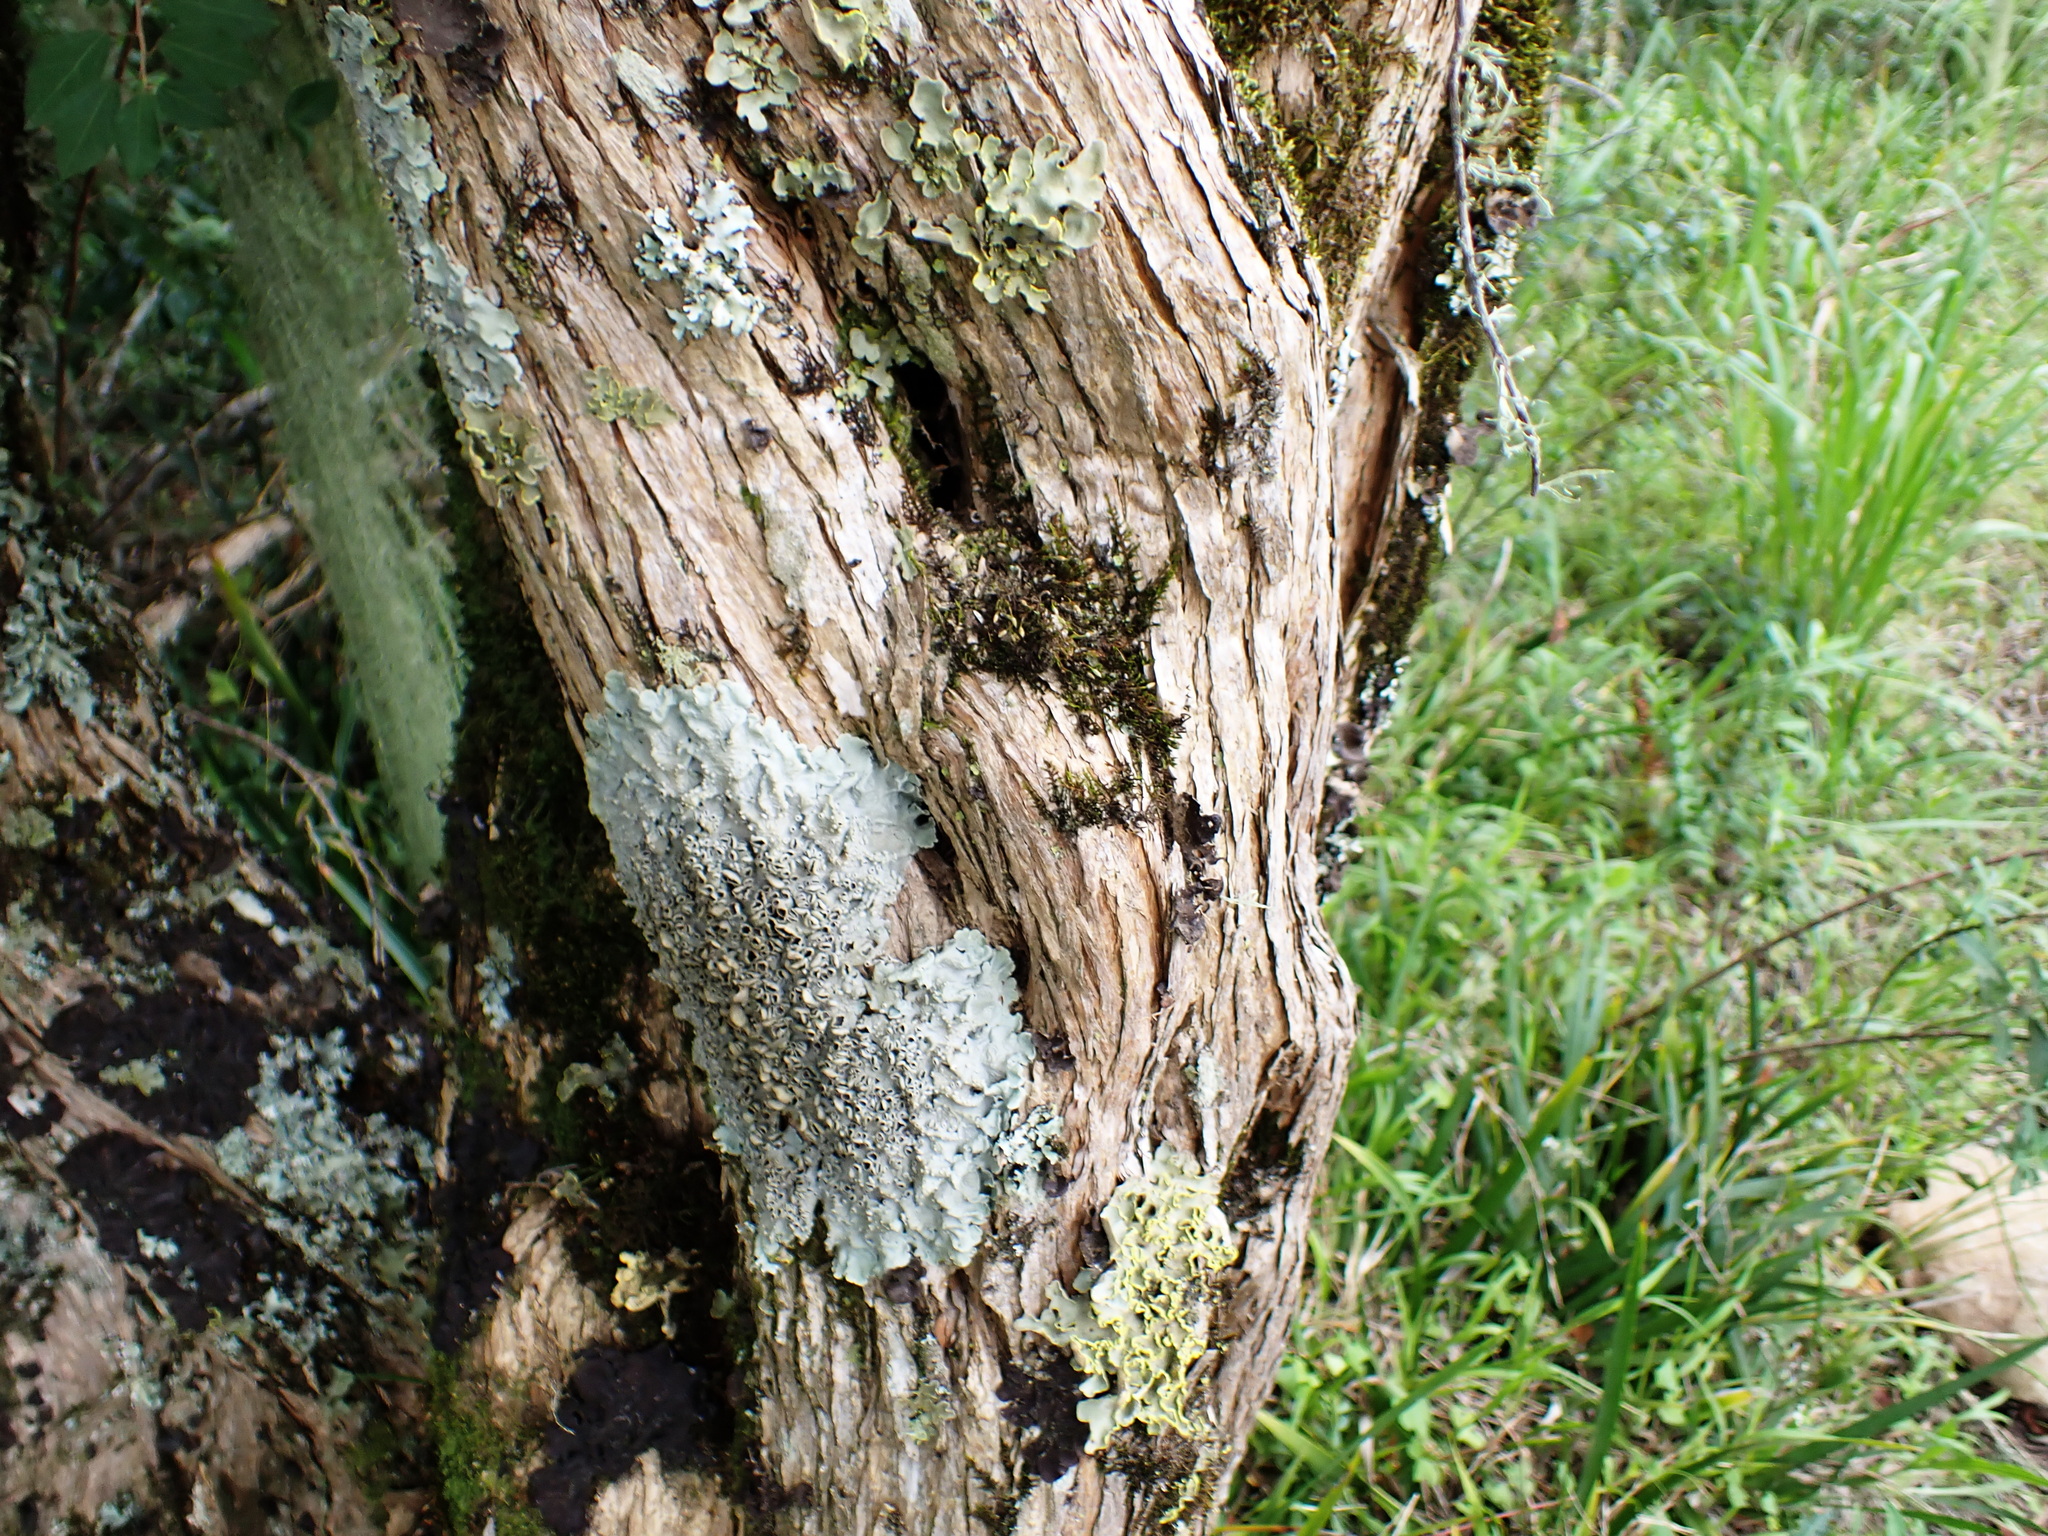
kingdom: Plantae
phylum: Tracheophyta
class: Magnoliopsida
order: Lamiales
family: Scrophulariaceae
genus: Buddleja
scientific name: Buddleja saligna
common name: False olive
